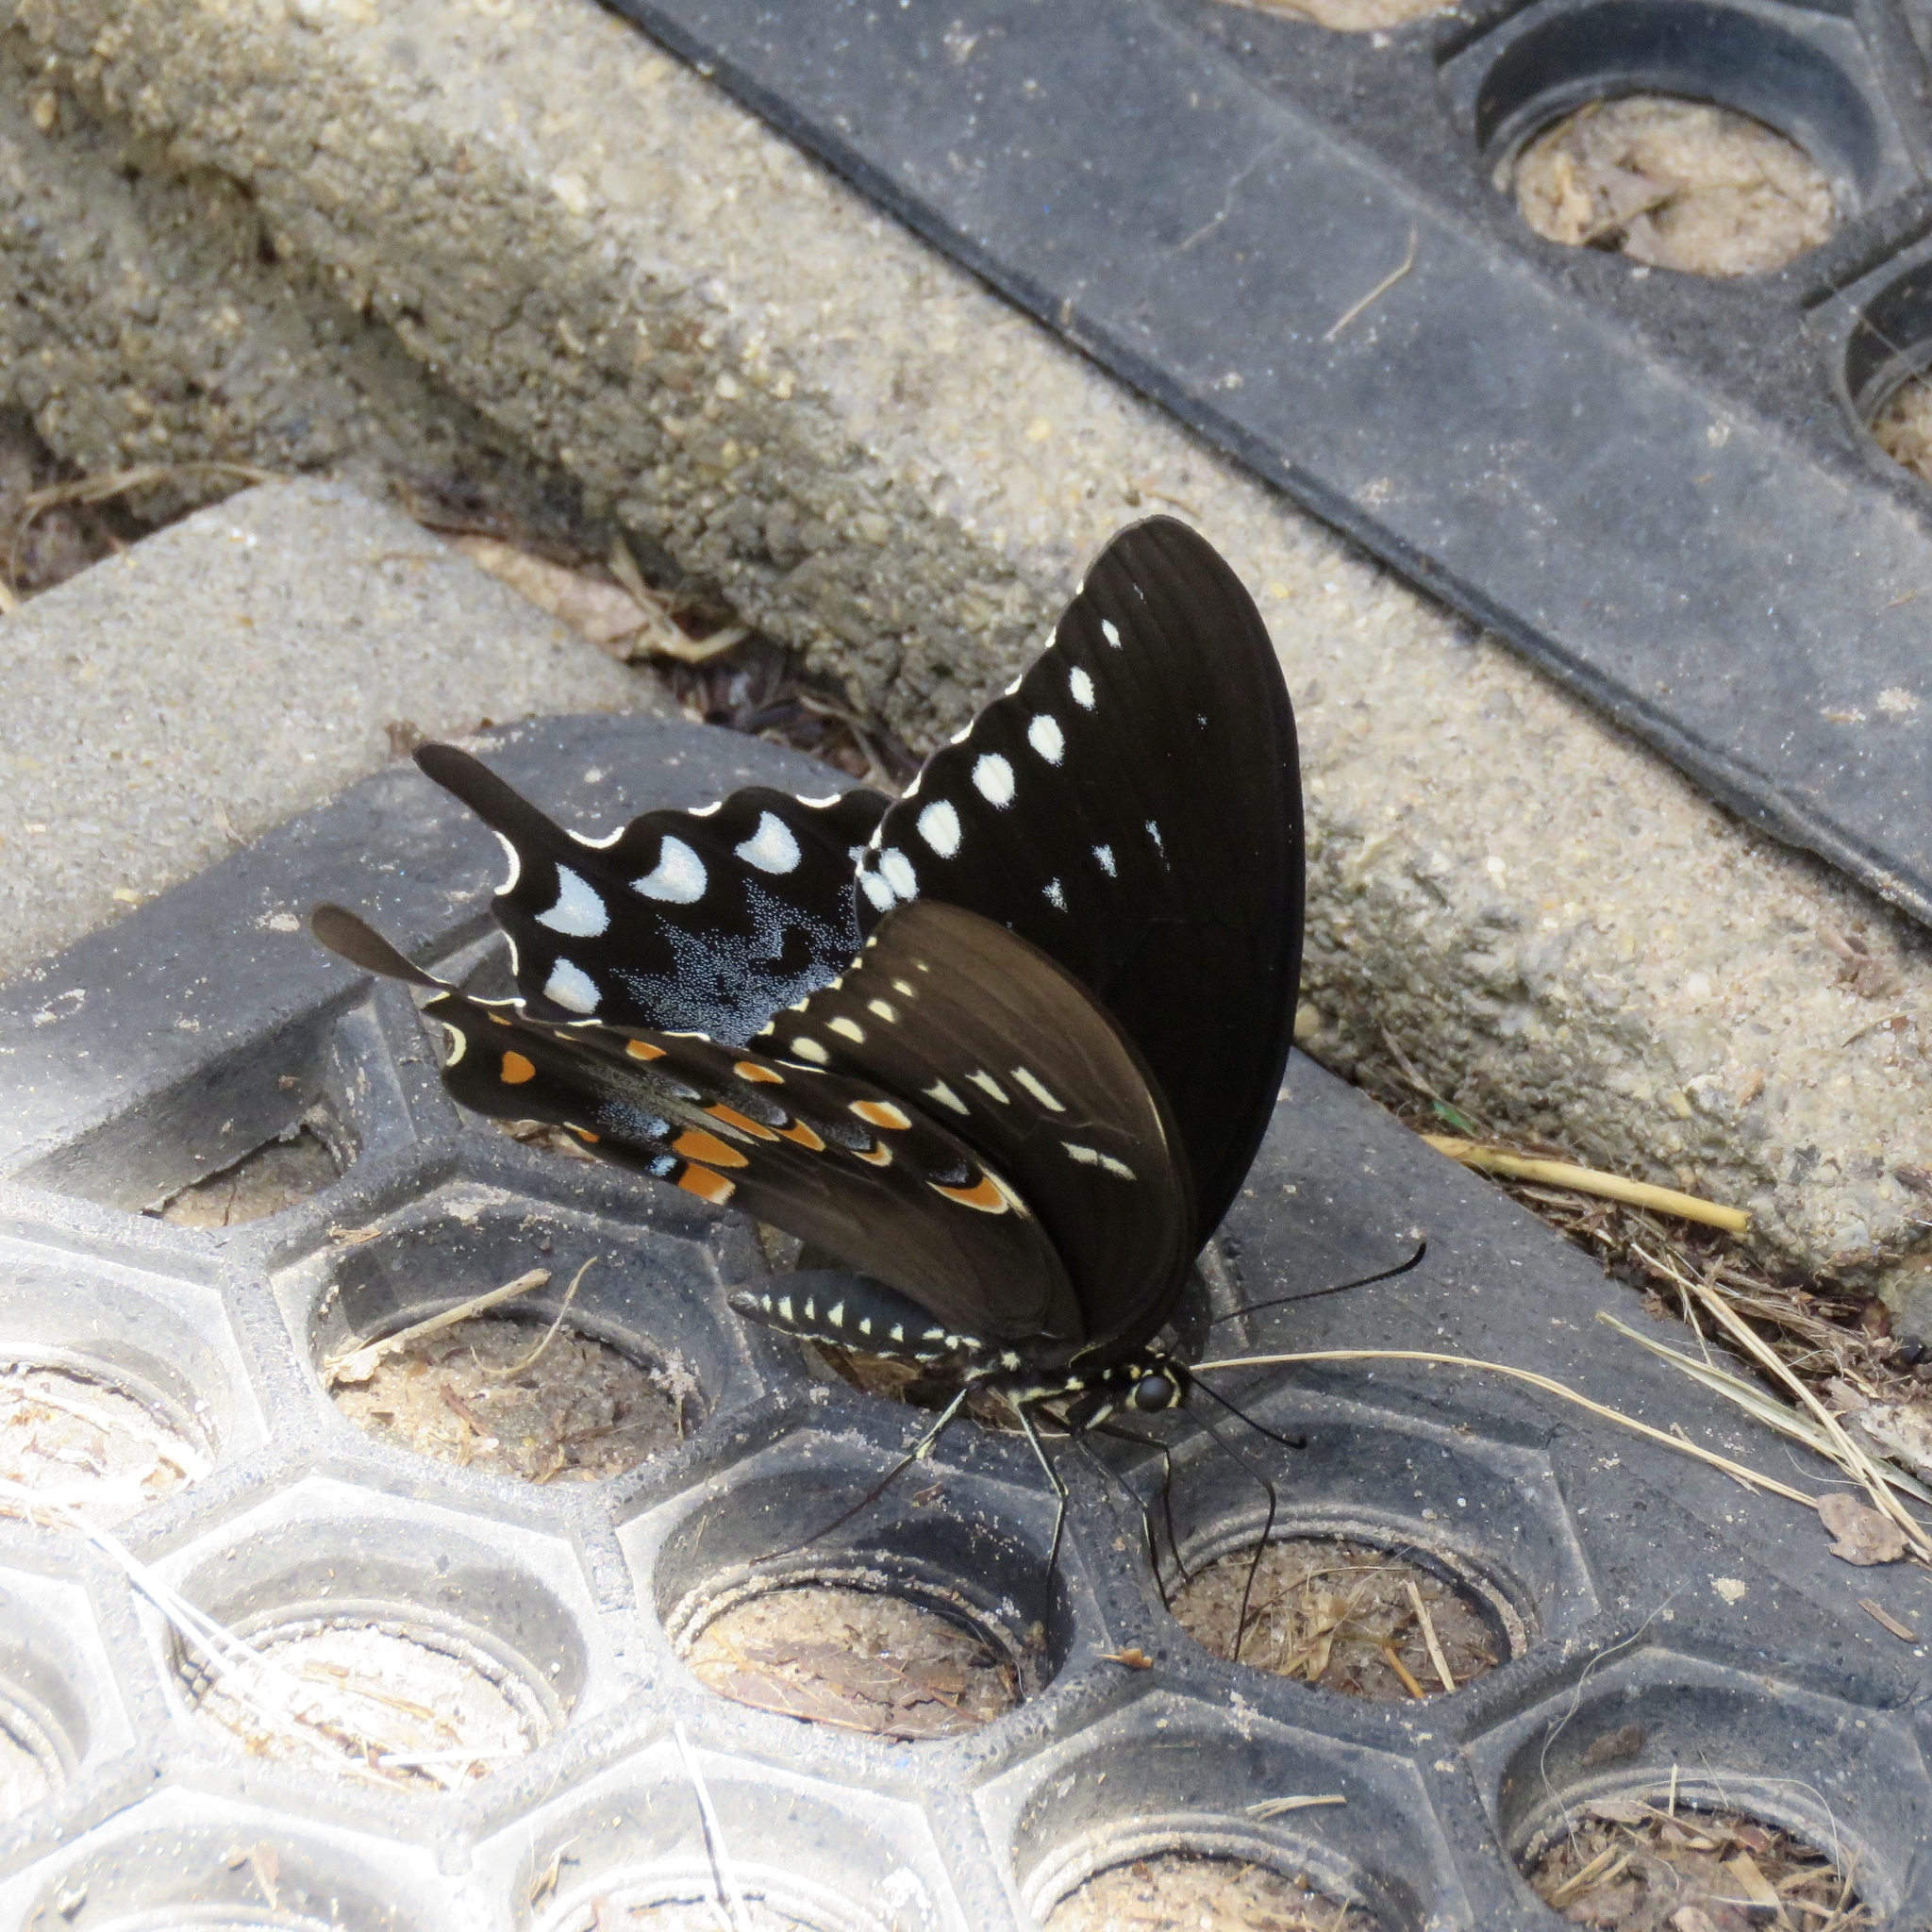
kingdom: Animalia
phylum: Arthropoda
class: Insecta
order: Lepidoptera
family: Papilionidae
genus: Papilio
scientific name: Papilio troilus
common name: Spicebush swallowtail
